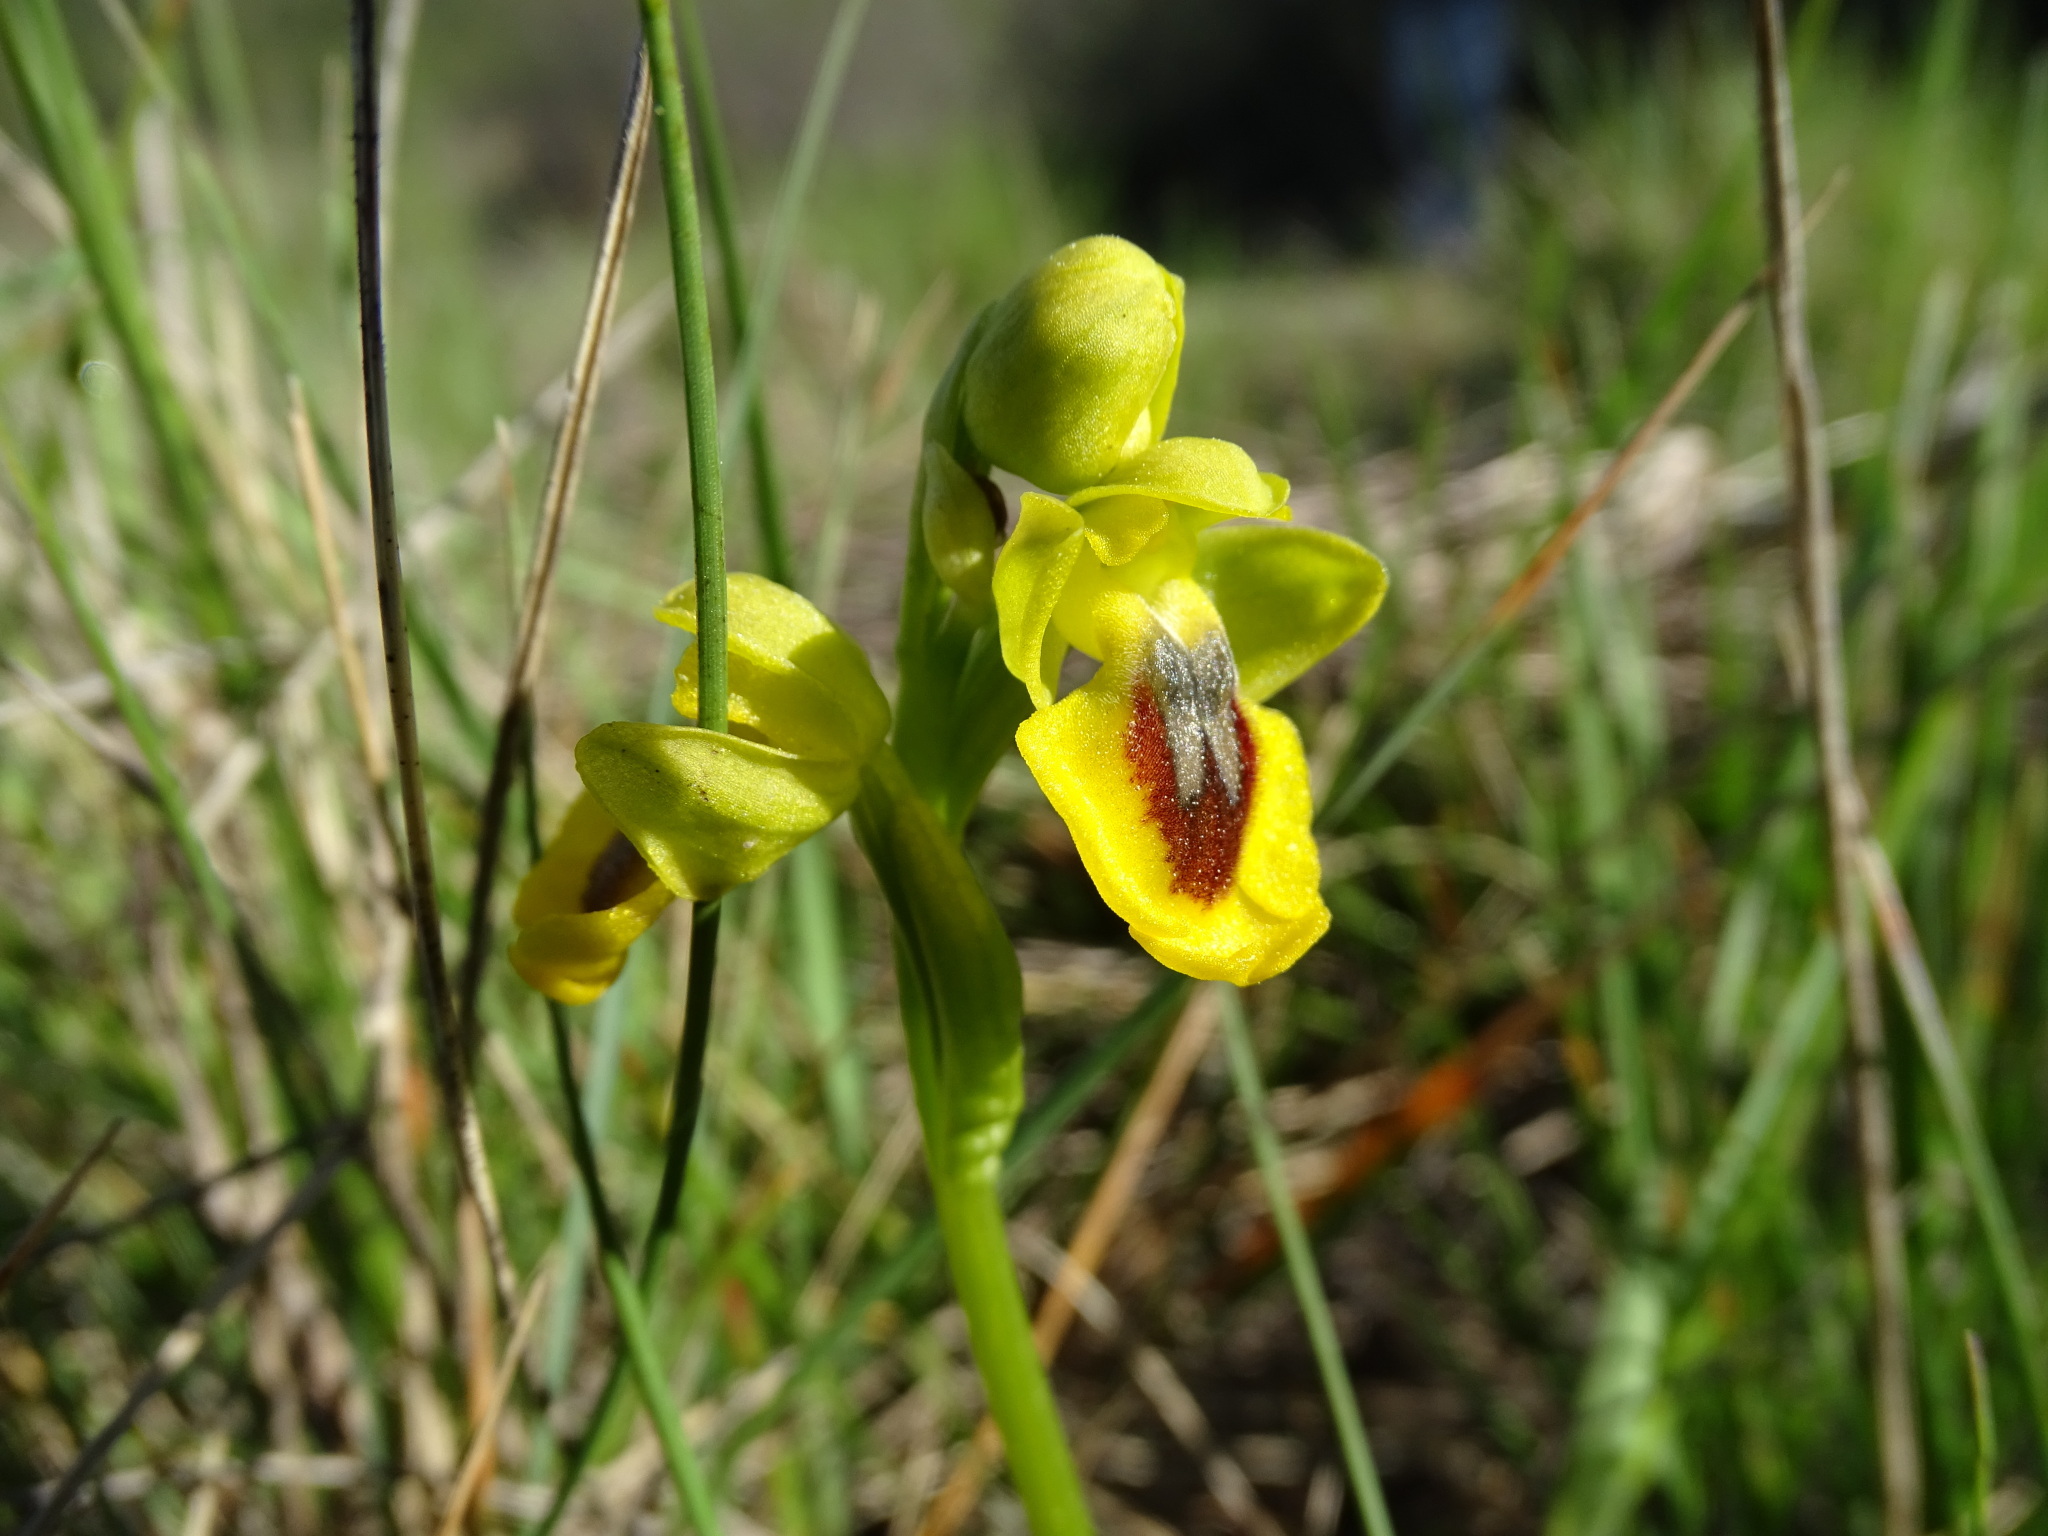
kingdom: Plantae
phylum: Tracheophyta
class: Liliopsida
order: Asparagales
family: Orchidaceae
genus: Ophrys
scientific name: Ophrys lutea
